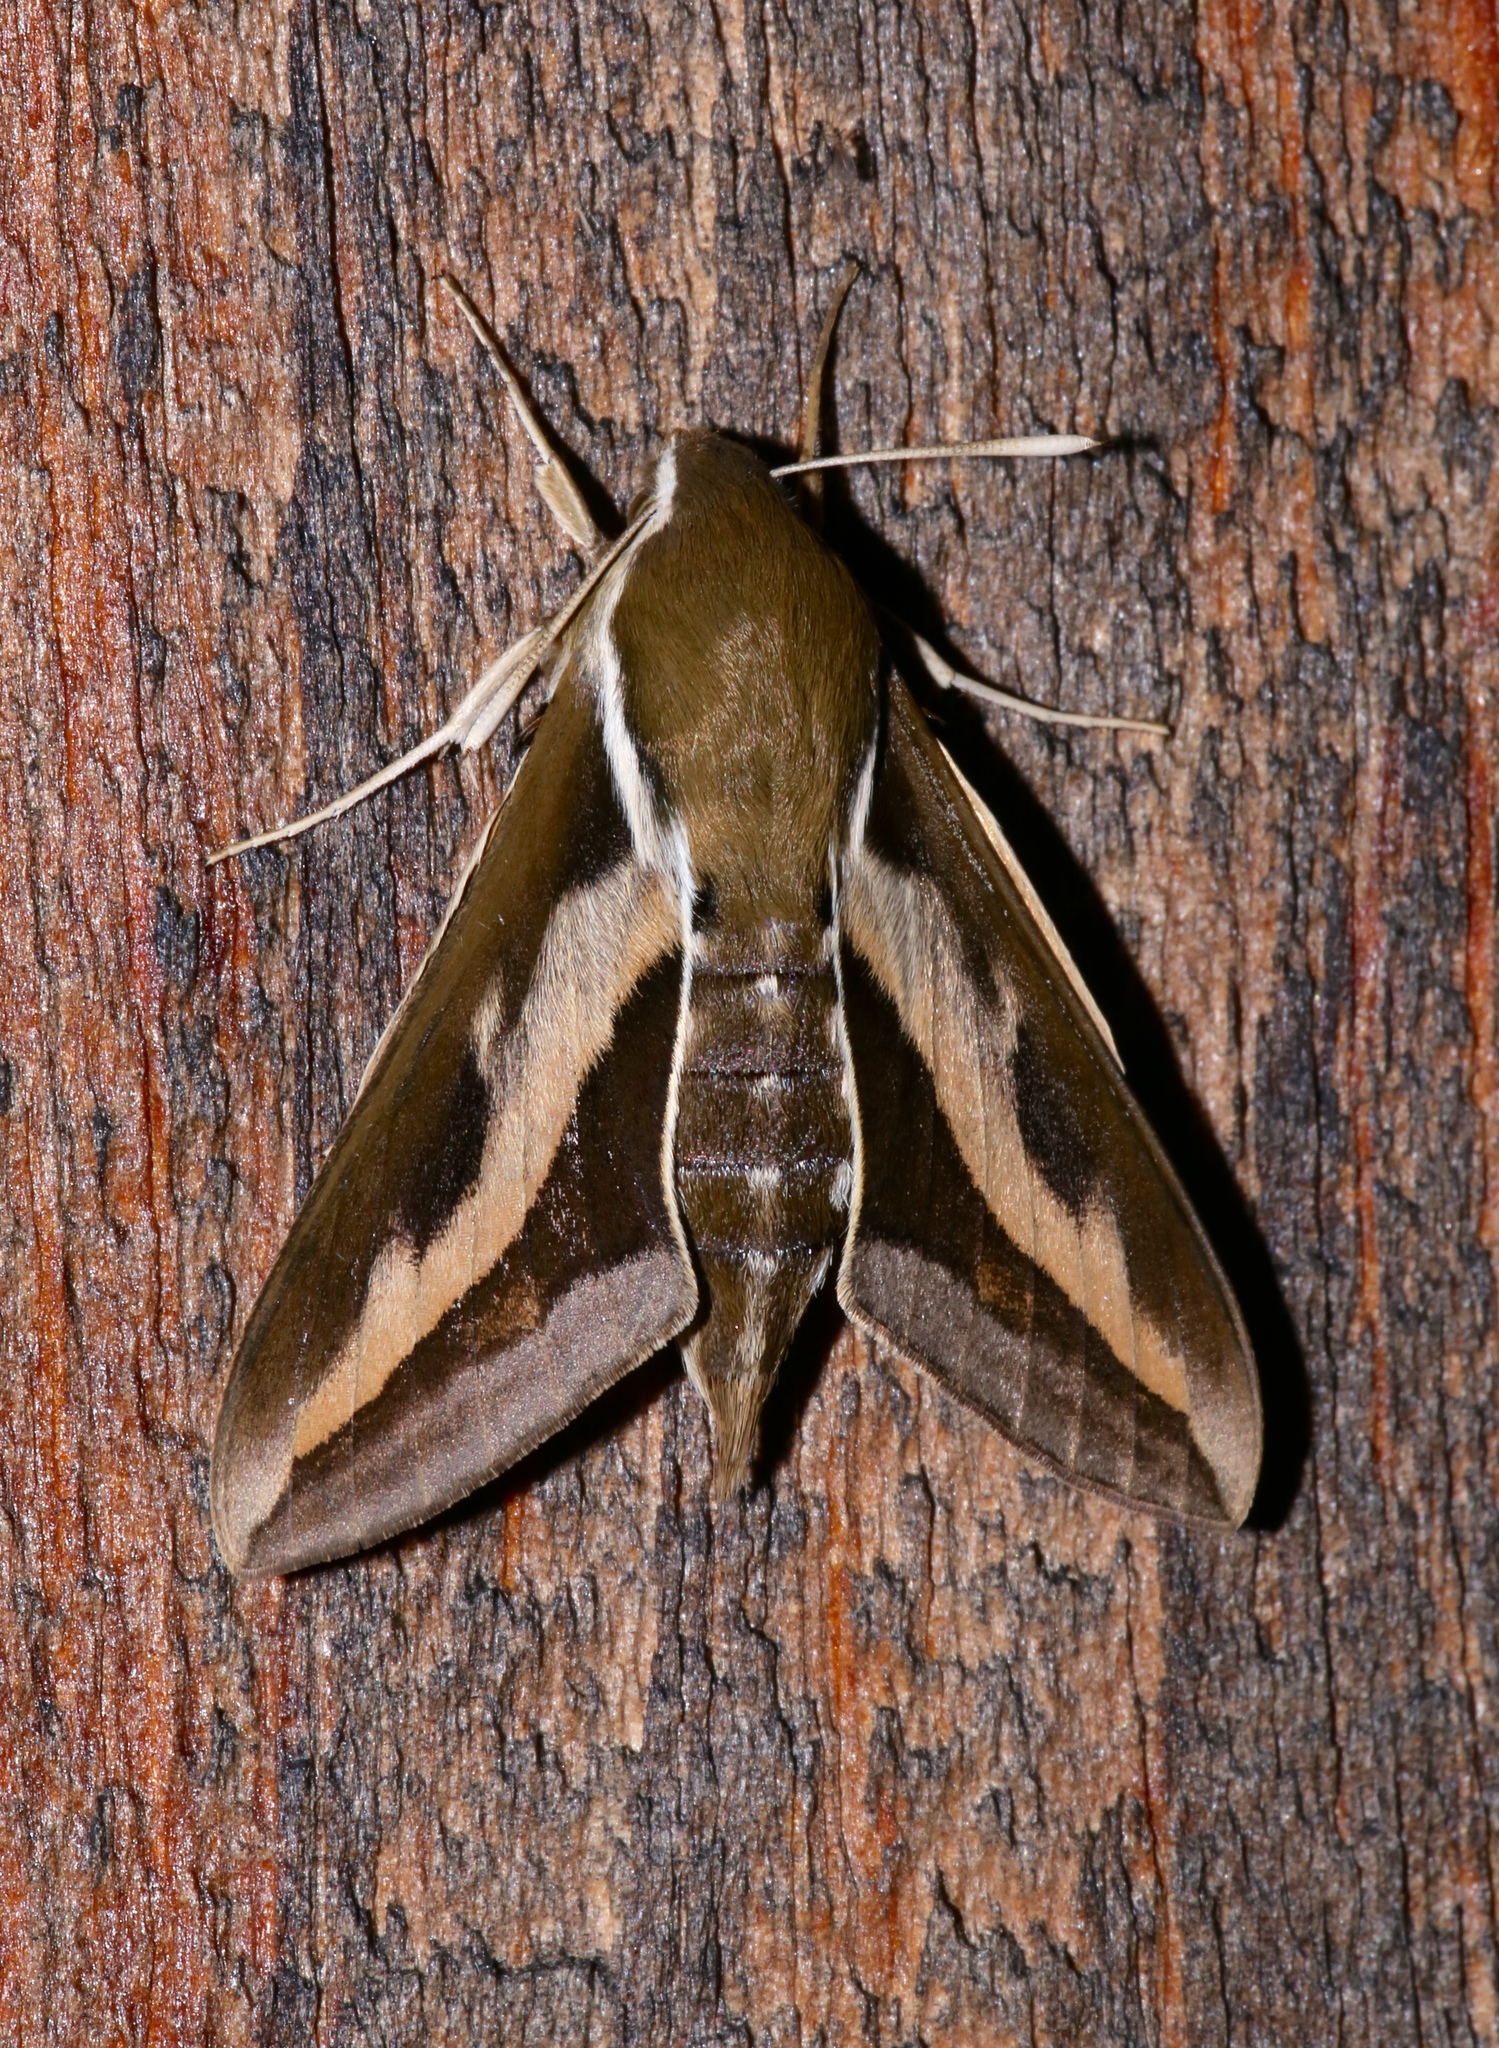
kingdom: Animalia
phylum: Arthropoda
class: Insecta
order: Lepidoptera
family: Sphingidae
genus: Hyles
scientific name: Hyles gallii
